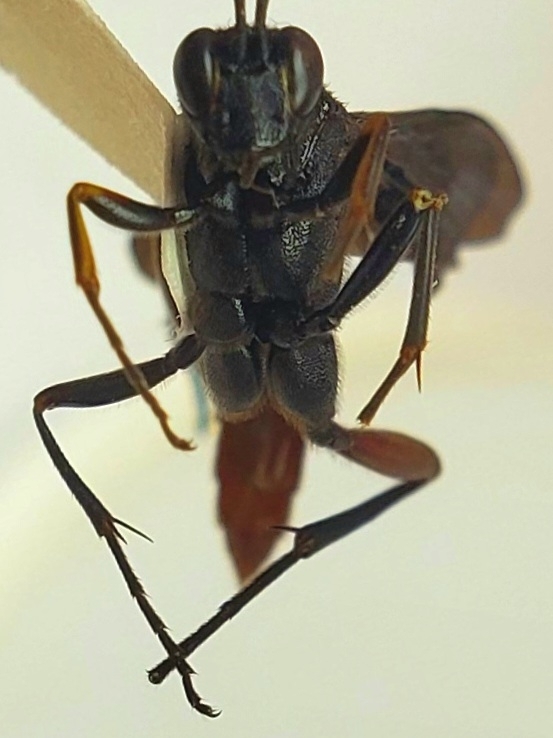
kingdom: Animalia
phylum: Arthropoda
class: Insecta
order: Hymenoptera
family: Ichneumonidae
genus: Limonethe
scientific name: Limonethe maurator
